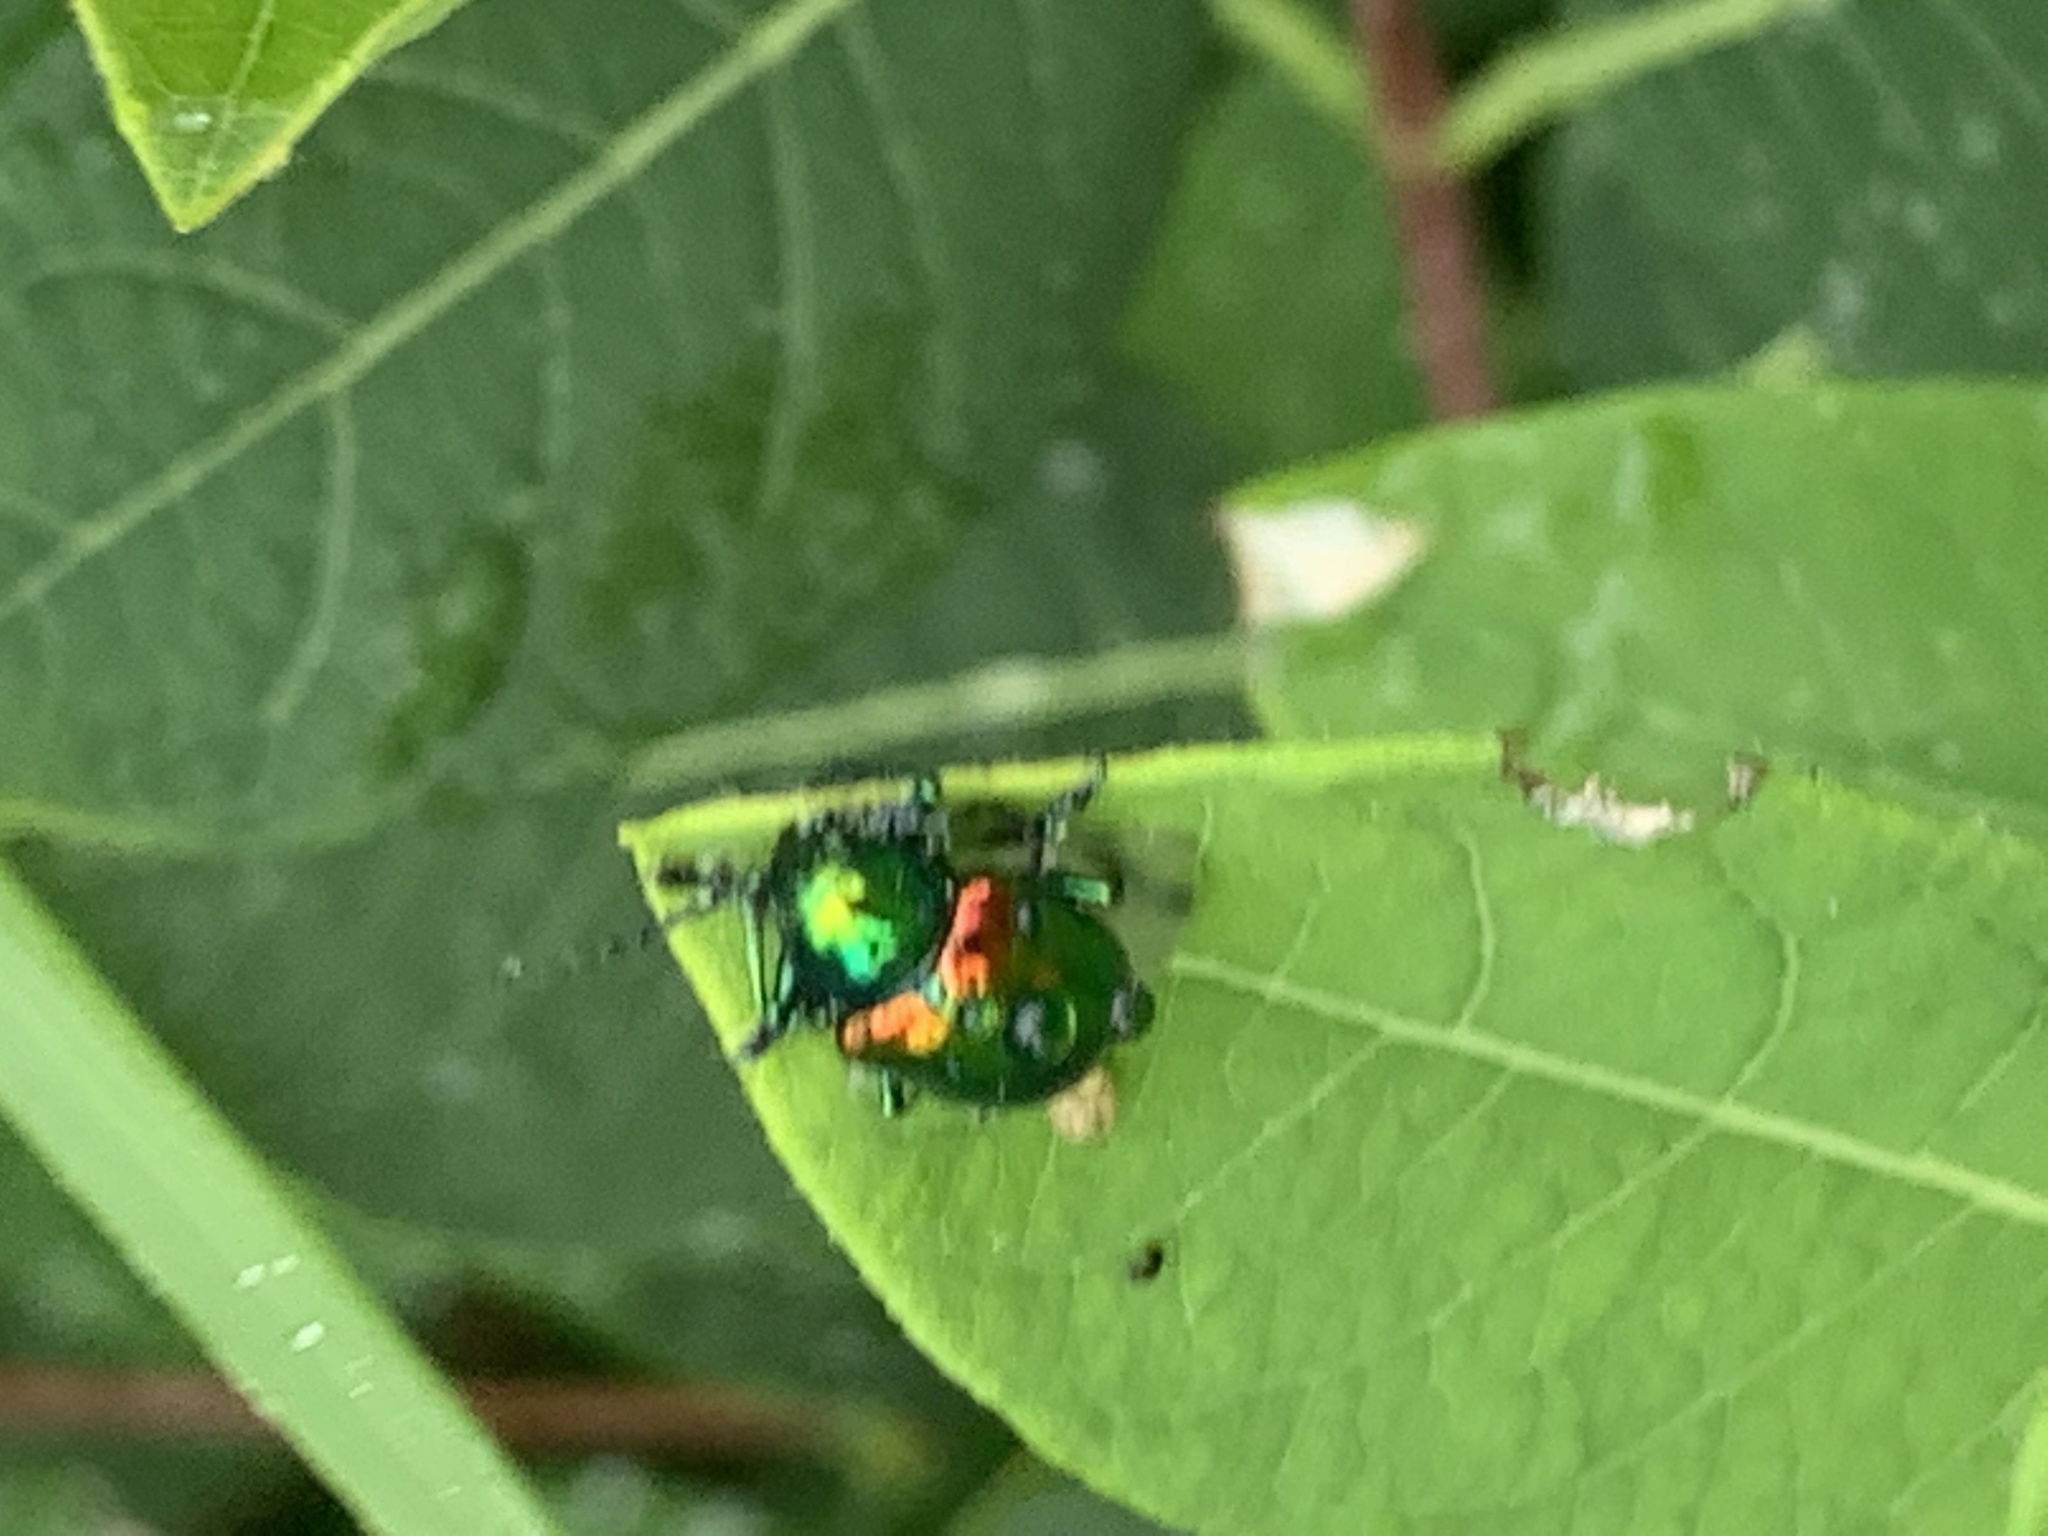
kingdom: Animalia
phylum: Arthropoda
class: Insecta
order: Coleoptera
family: Chrysomelidae
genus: Chrysochus
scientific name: Chrysochus auratus
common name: Dogbane leaf beetle
